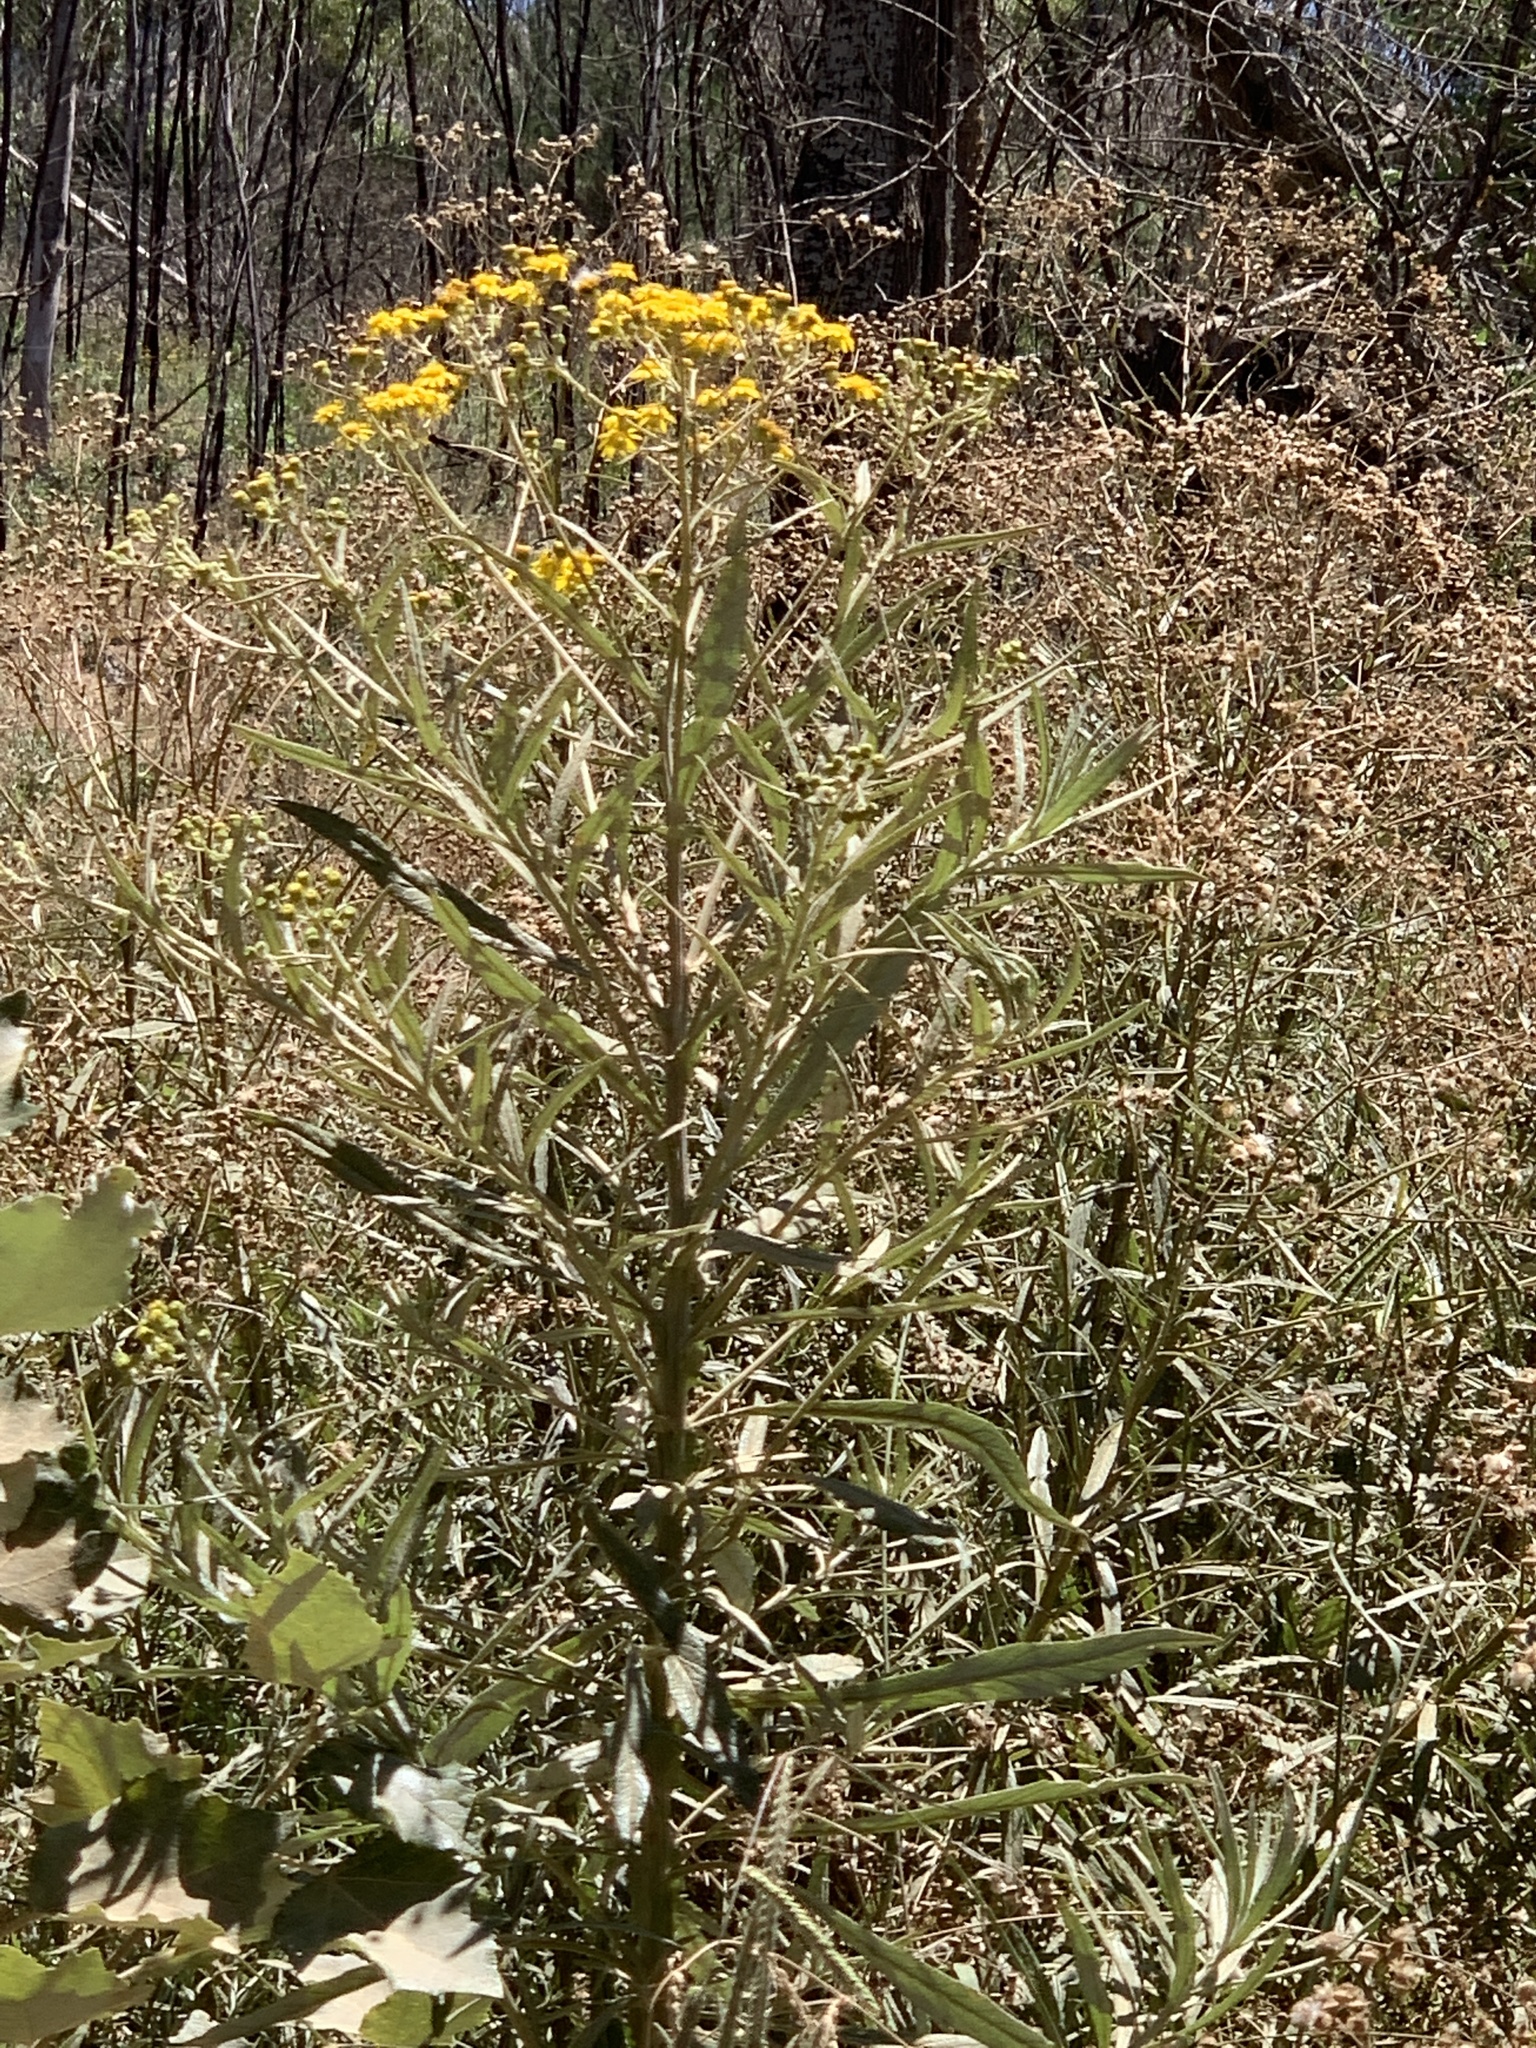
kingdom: Plantae
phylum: Tracheophyta
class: Magnoliopsida
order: Asterales
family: Asteraceae
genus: Senecio
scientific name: Senecio pterophorus
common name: Shoddy ragwort
